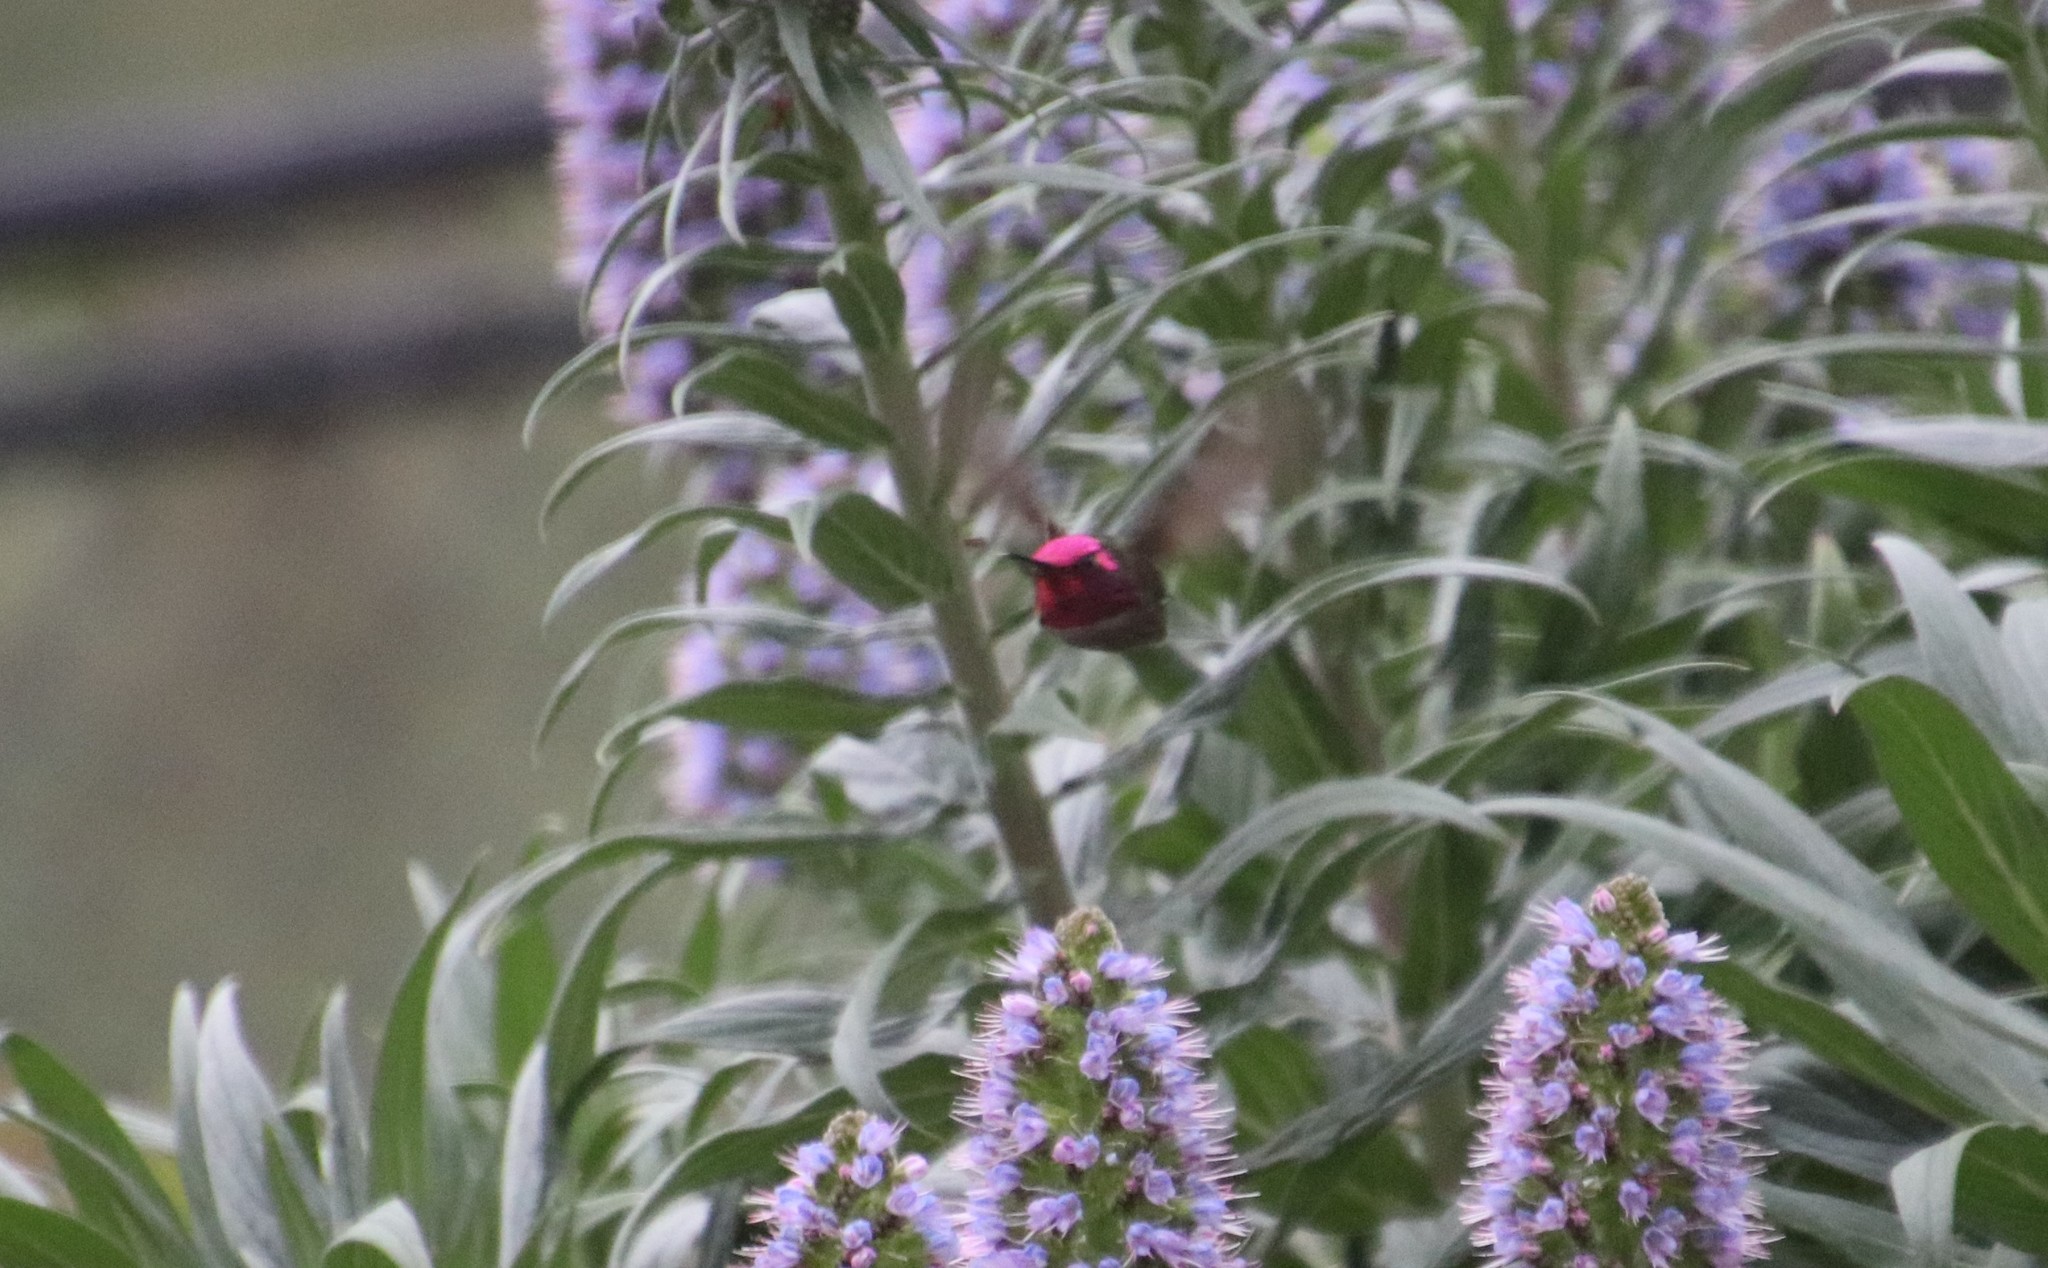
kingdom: Animalia
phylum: Chordata
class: Aves
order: Apodiformes
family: Trochilidae
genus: Calypte
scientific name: Calypte anna
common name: Anna's hummingbird
